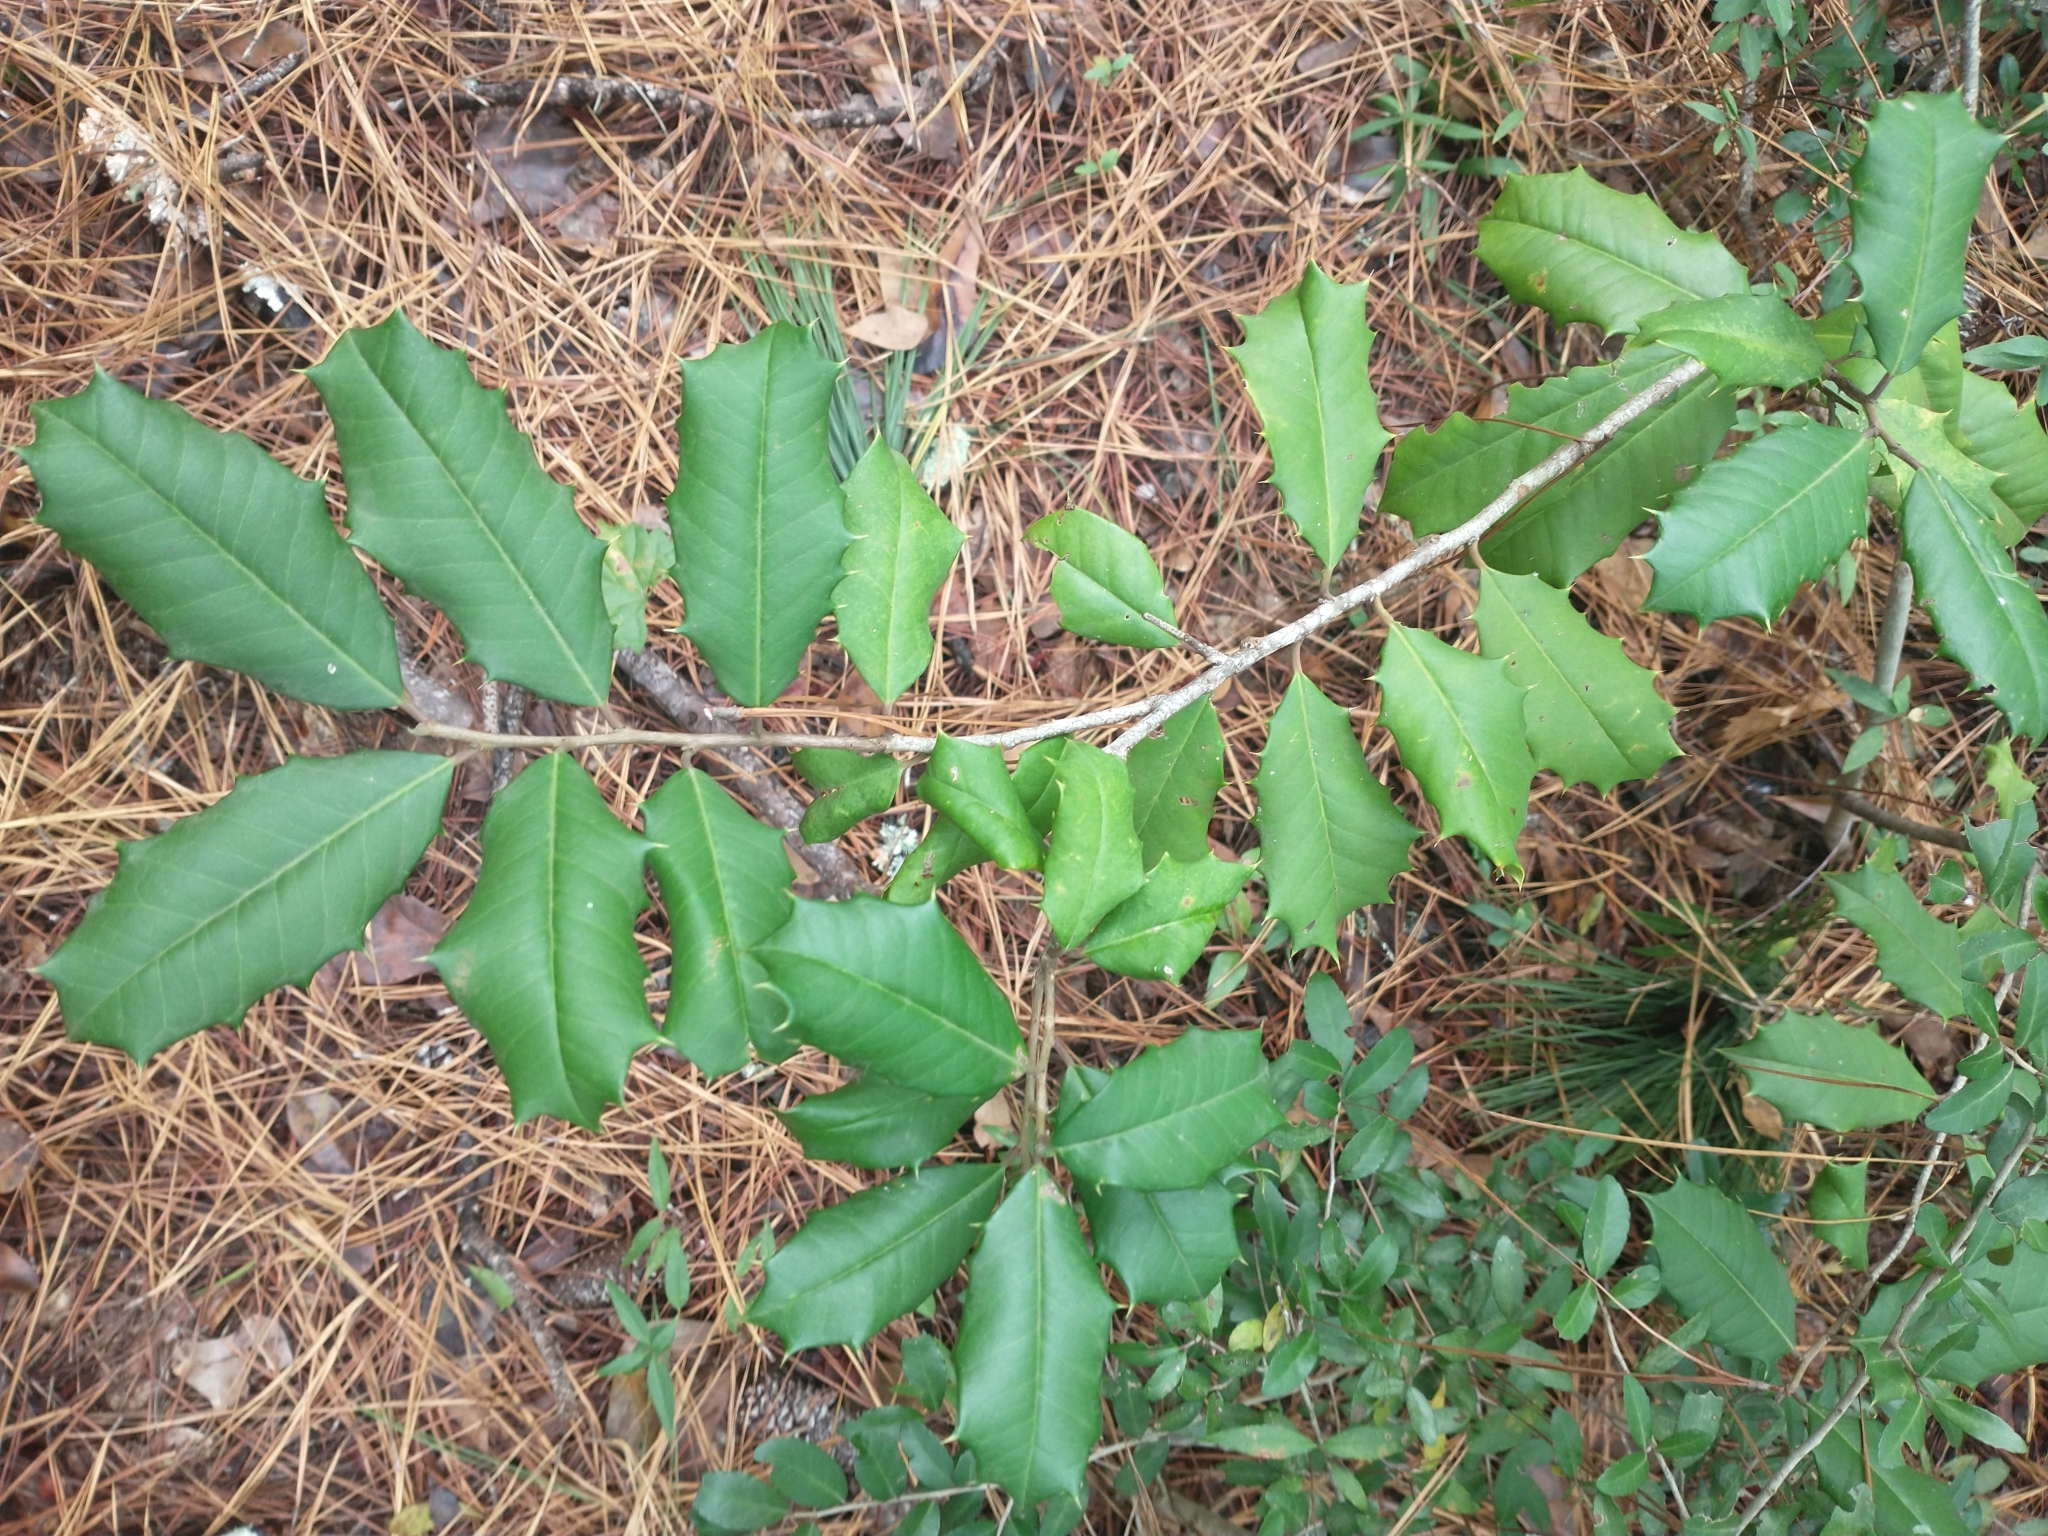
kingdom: Plantae
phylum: Tracheophyta
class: Magnoliopsida
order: Aquifoliales
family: Aquifoliaceae
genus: Ilex
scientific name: Ilex opaca
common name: American holly
